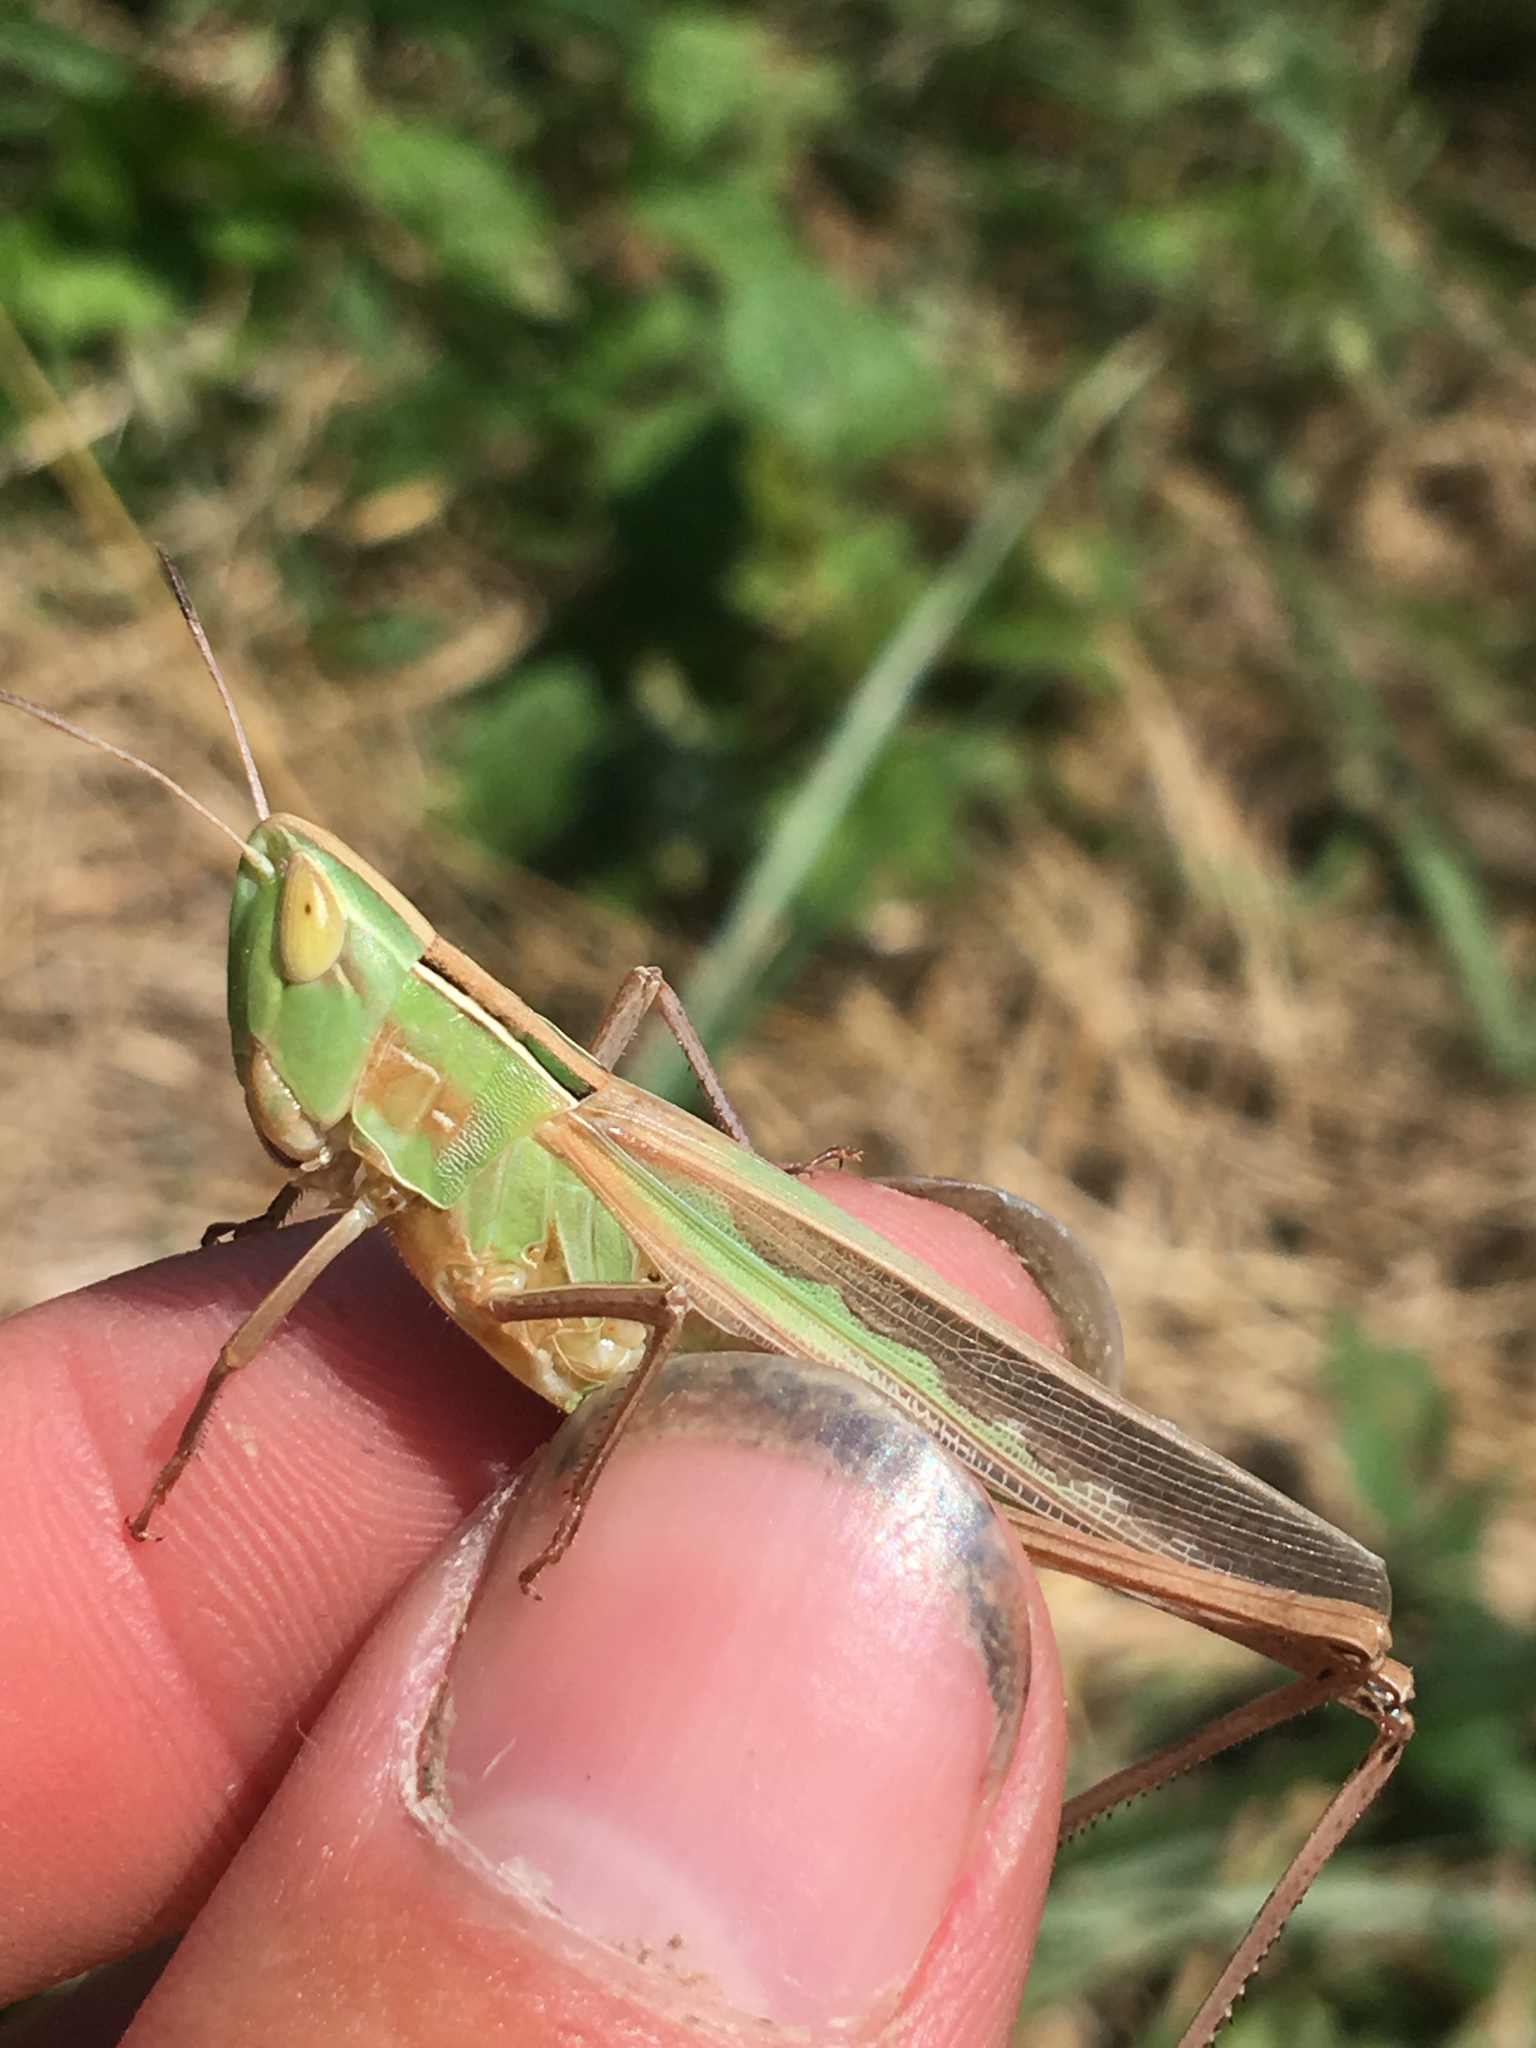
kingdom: Animalia
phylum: Arthropoda
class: Insecta
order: Orthoptera
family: Acrididae
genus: Syrbula
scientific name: Syrbula admirabilis
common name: Handsome grasshopper
